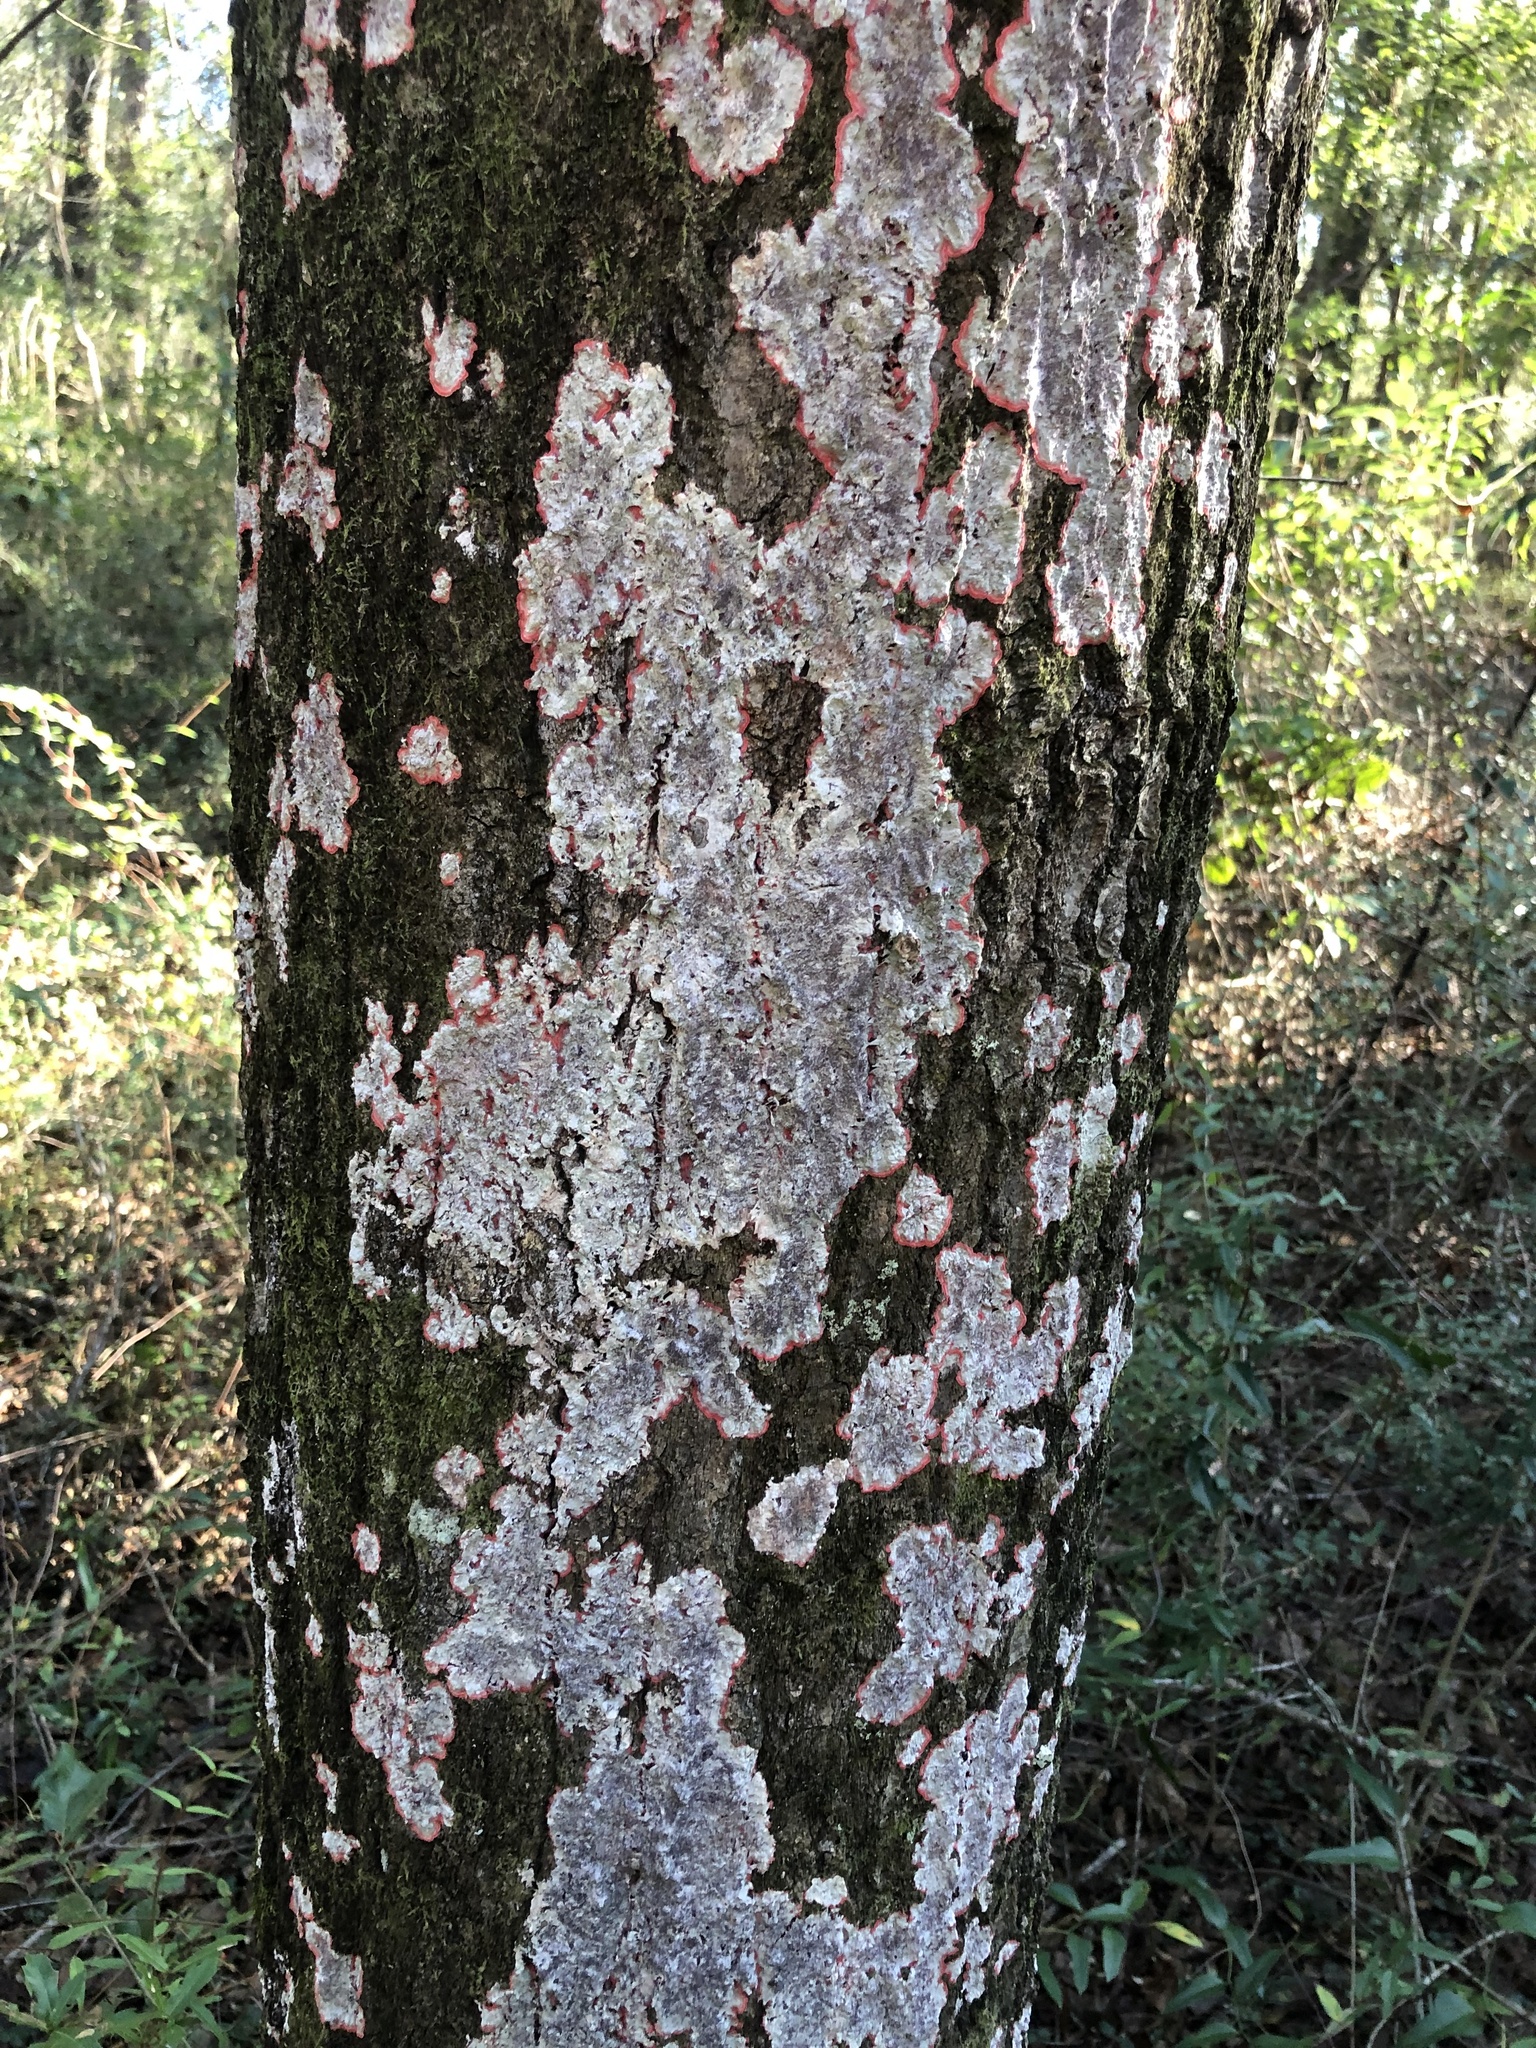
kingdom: Fungi
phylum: Ascomycota
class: Arthoniomycetes
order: Arthoniales
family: Arthoniaceae
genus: Herpothallon
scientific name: Herpothallon rubrocinctum
